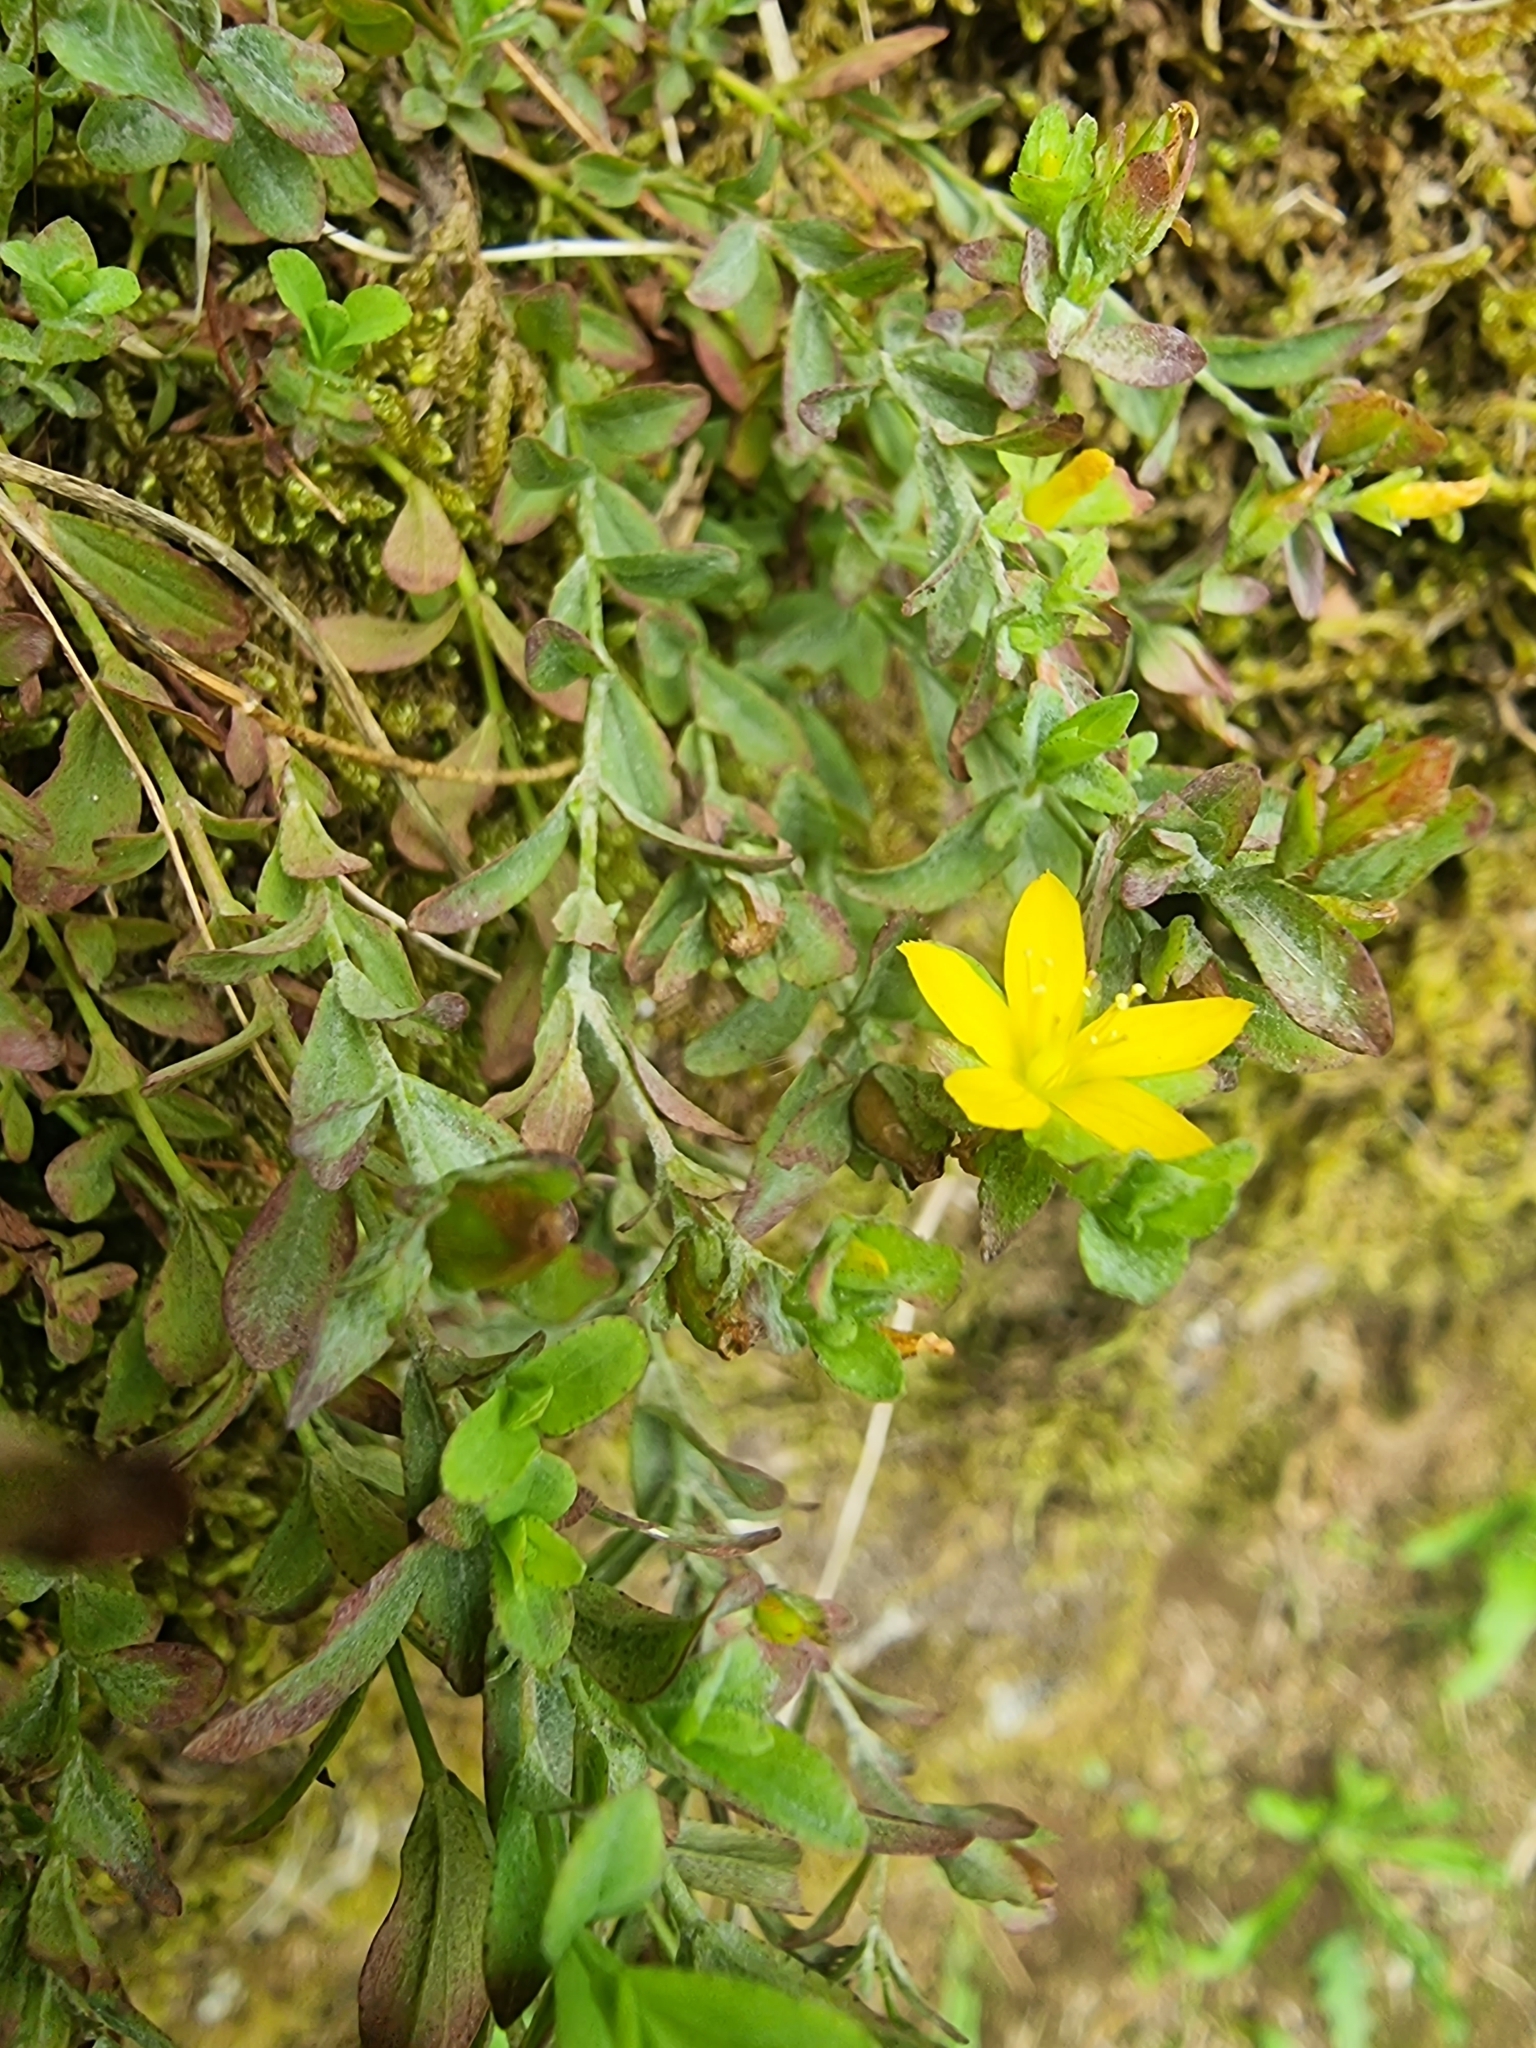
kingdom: Plantae
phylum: Tracheophyta
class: Magnoliopsida
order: Malpighiales
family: Hypericaceae
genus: Hypericum
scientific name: Hypericum humifusum
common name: Trailing st. john's-wort
